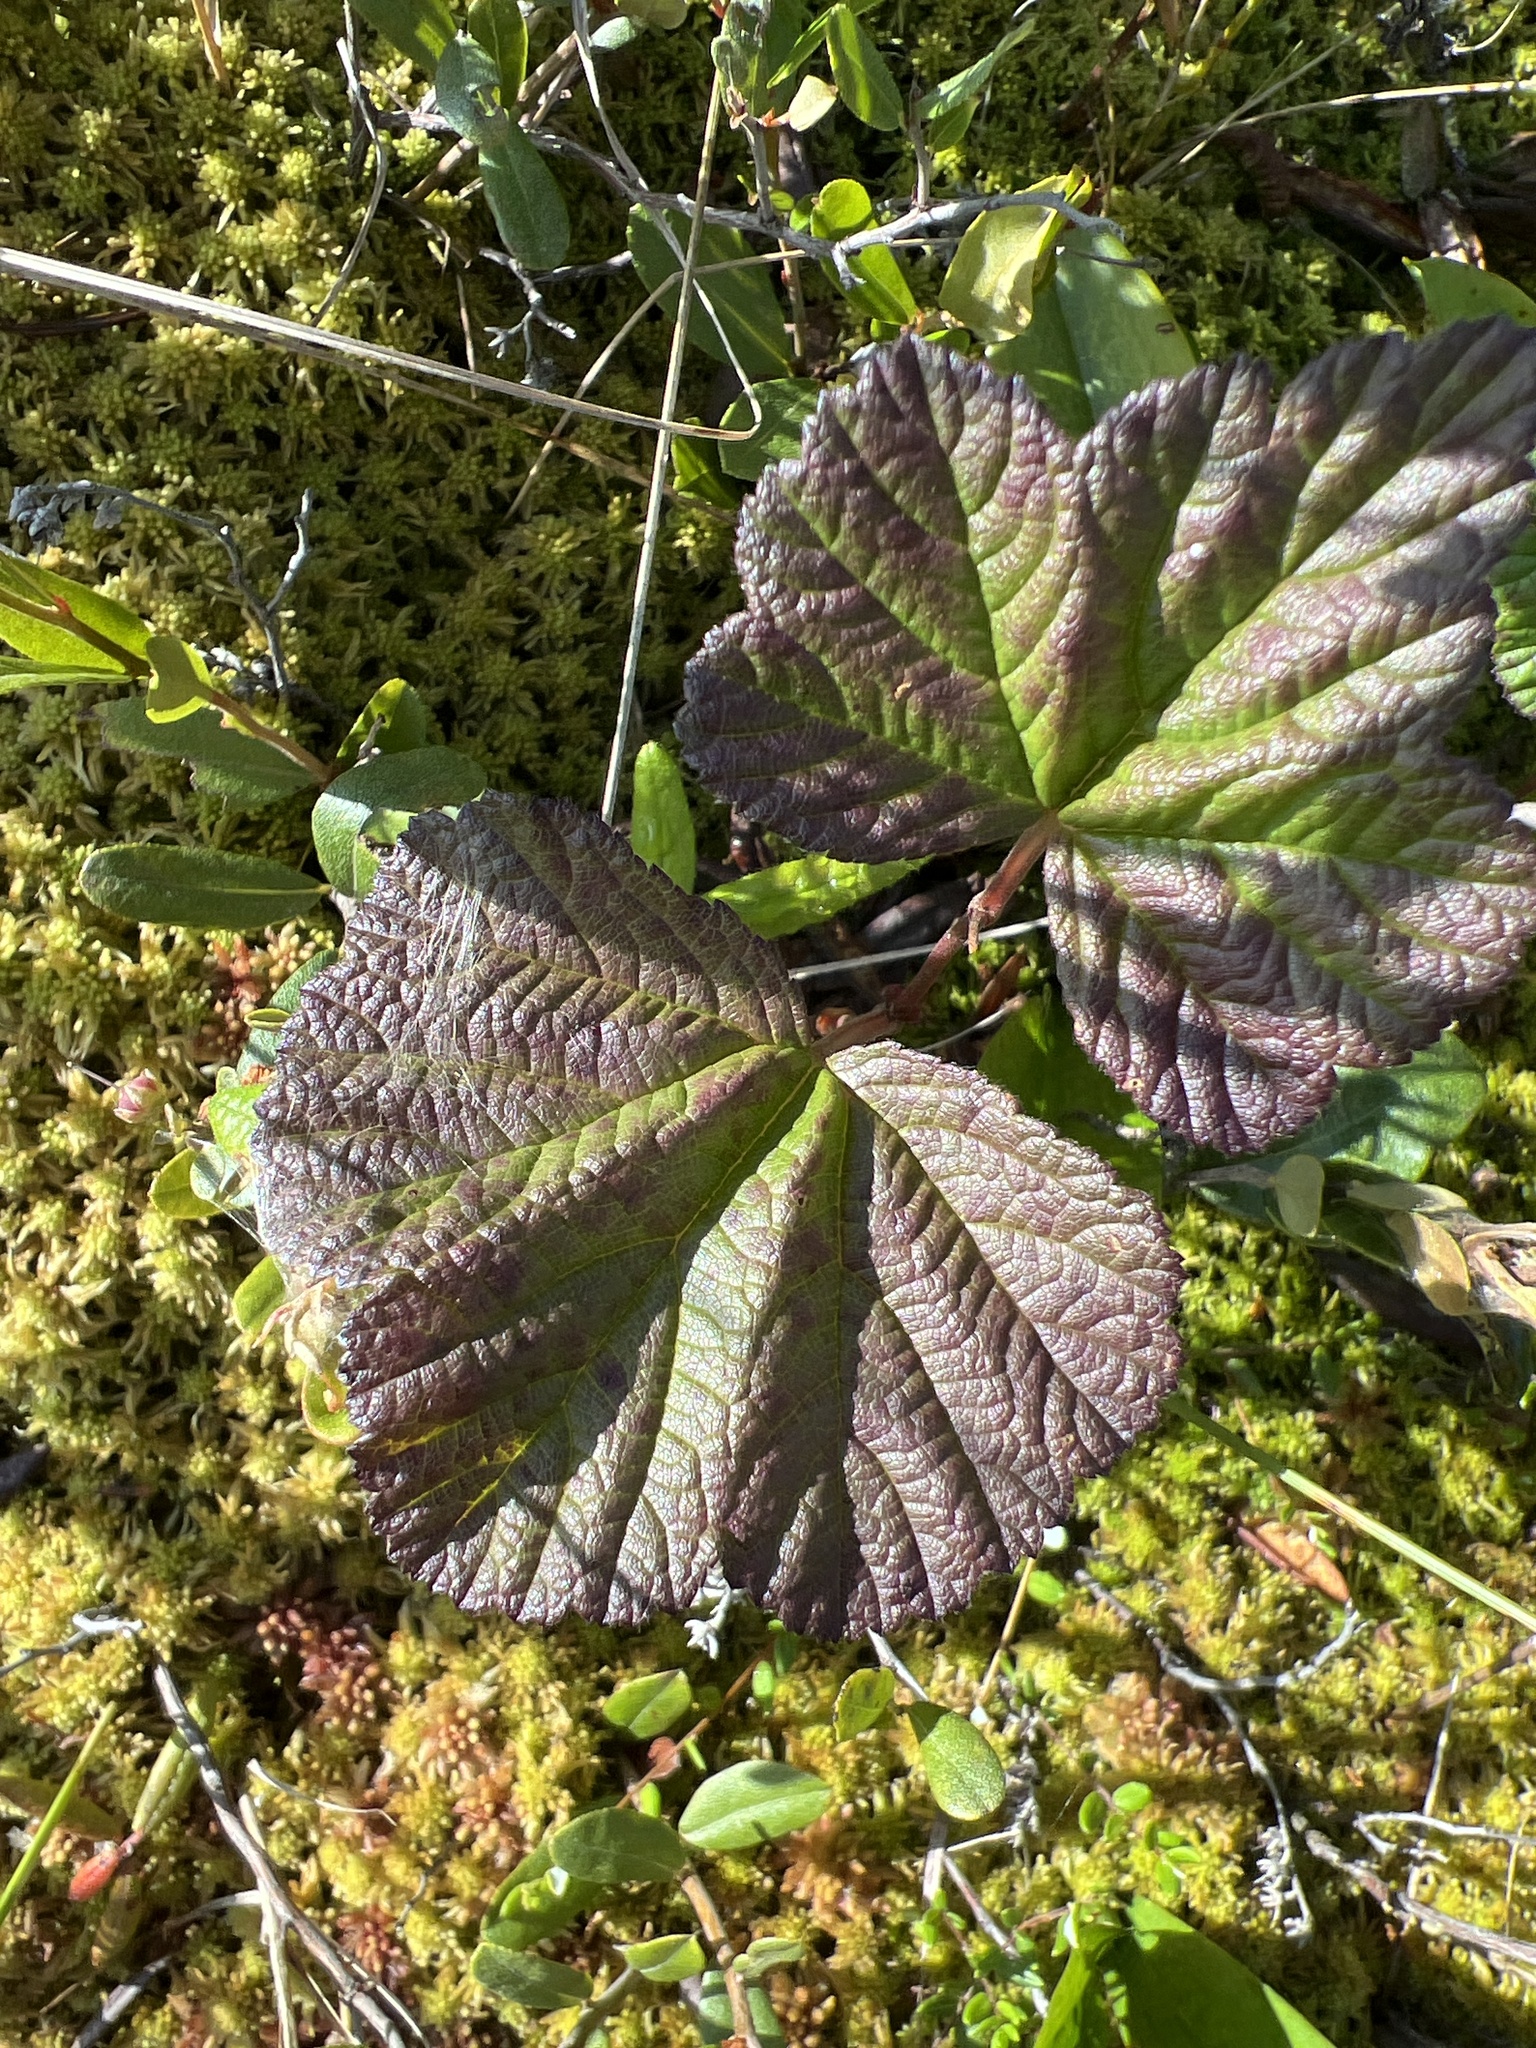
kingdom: Plantae
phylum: Tracheophyta
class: Magnoliopsida
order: Rosales
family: Rosaceae
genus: Rubus
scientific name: Rubus chamaemorus
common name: Cloudberry
